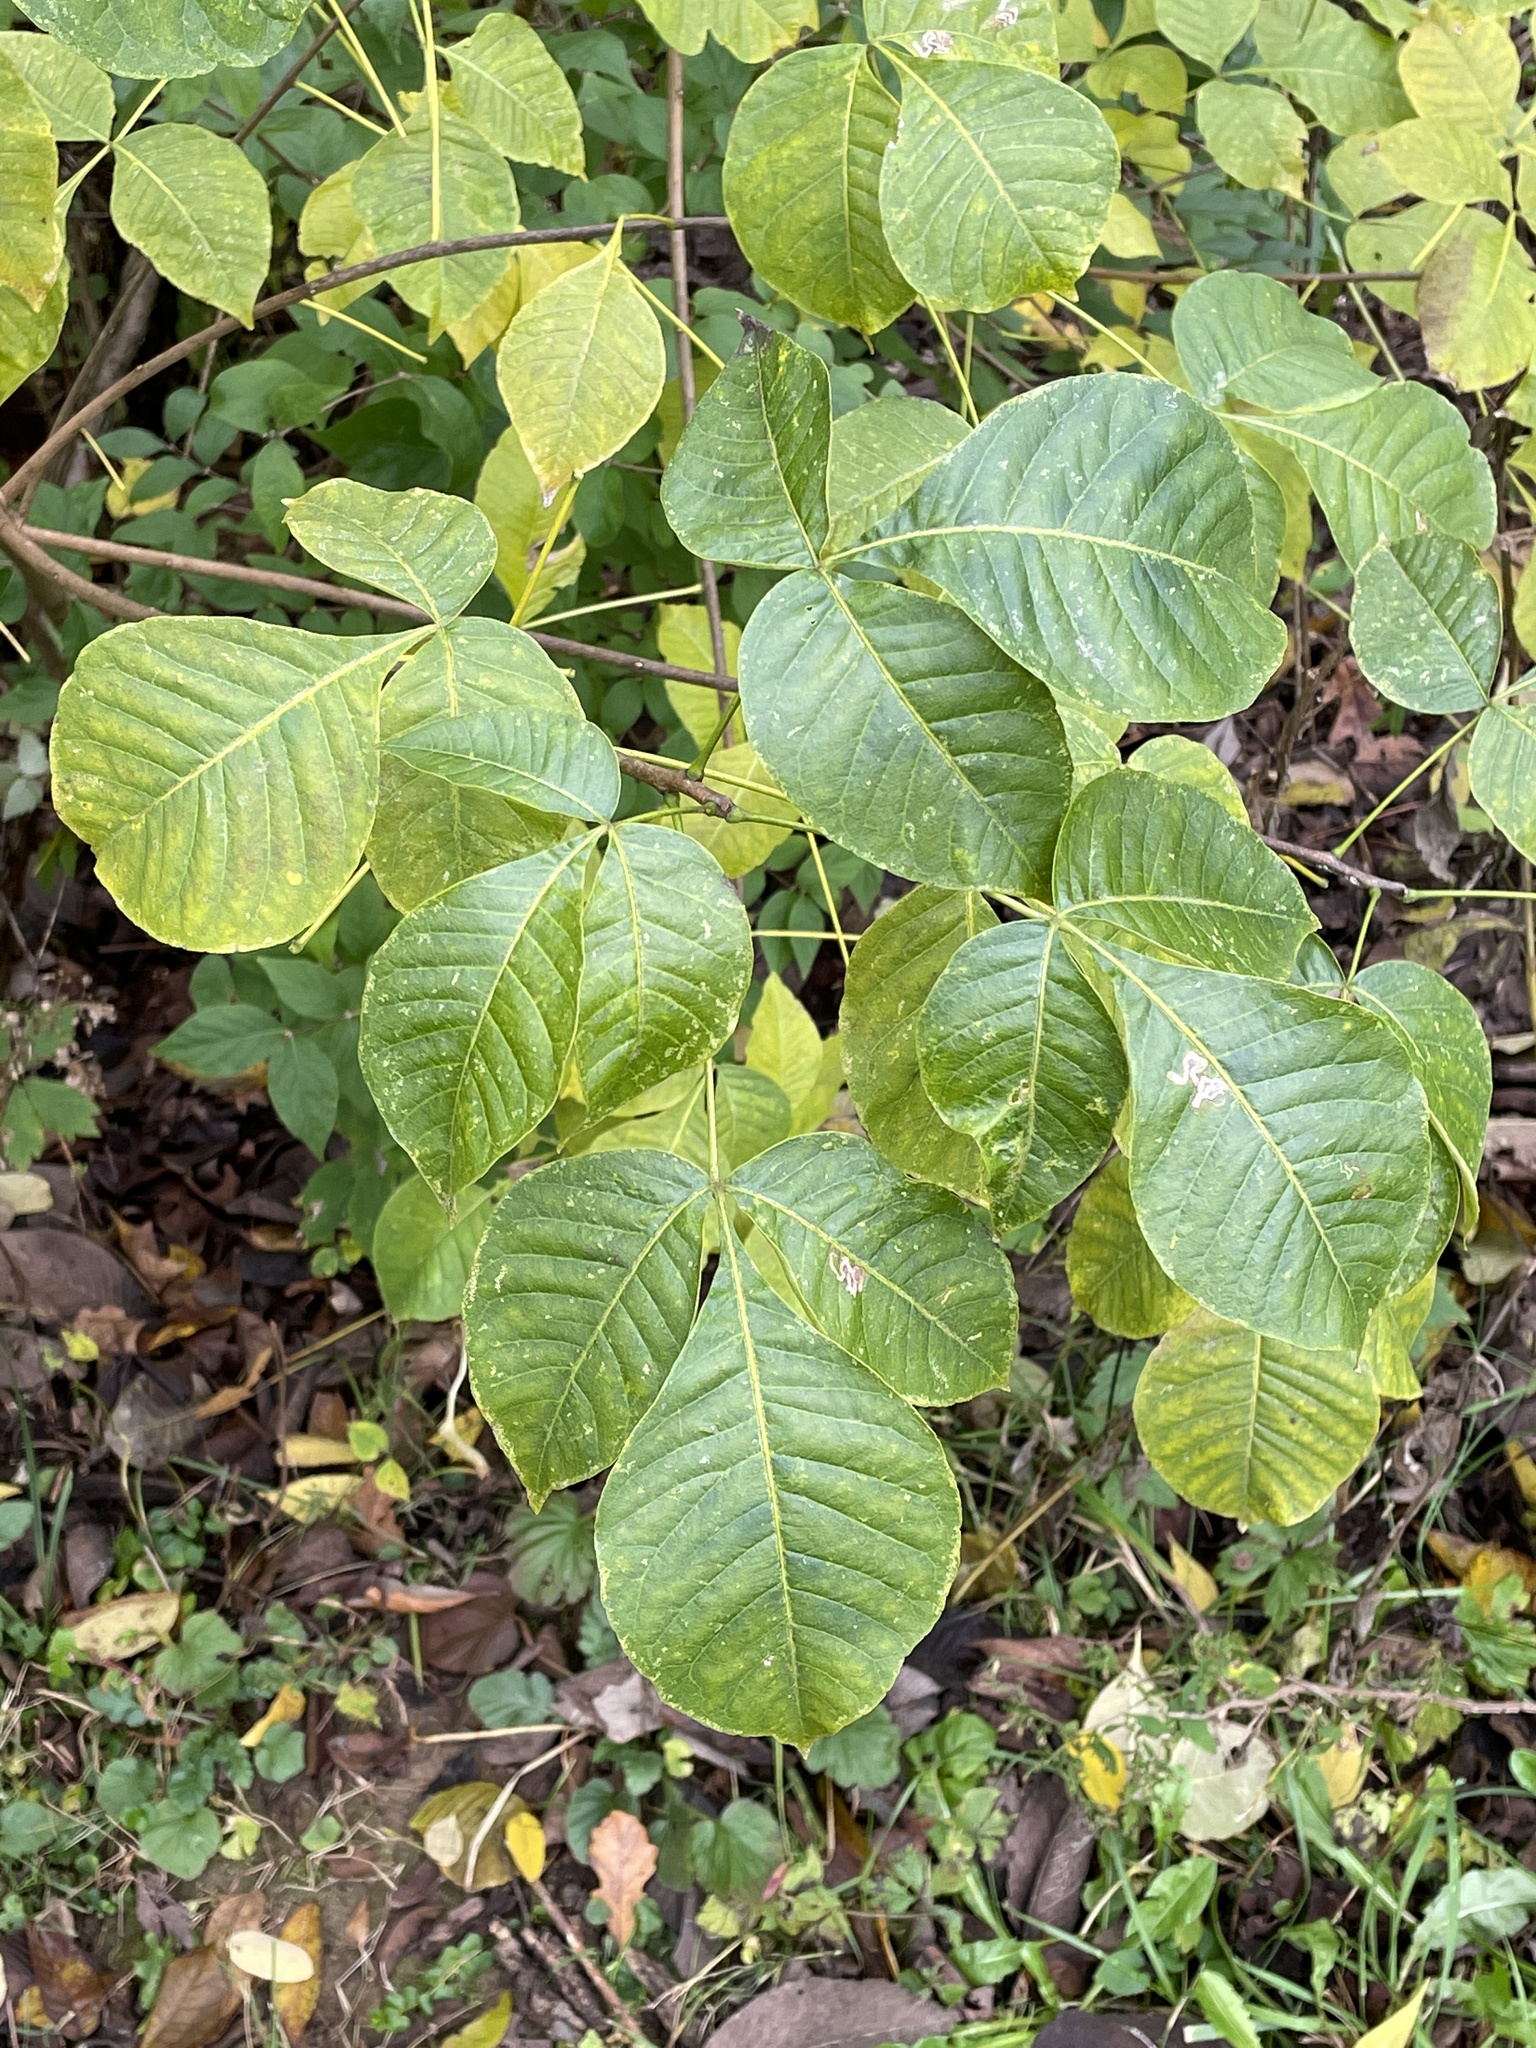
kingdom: Plantae
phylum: Tracheophyta
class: Magnoliopsida
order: Sapindales
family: Rutaceae
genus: Ptelea
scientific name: Ptelea trifoliata
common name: Common hop-tree
